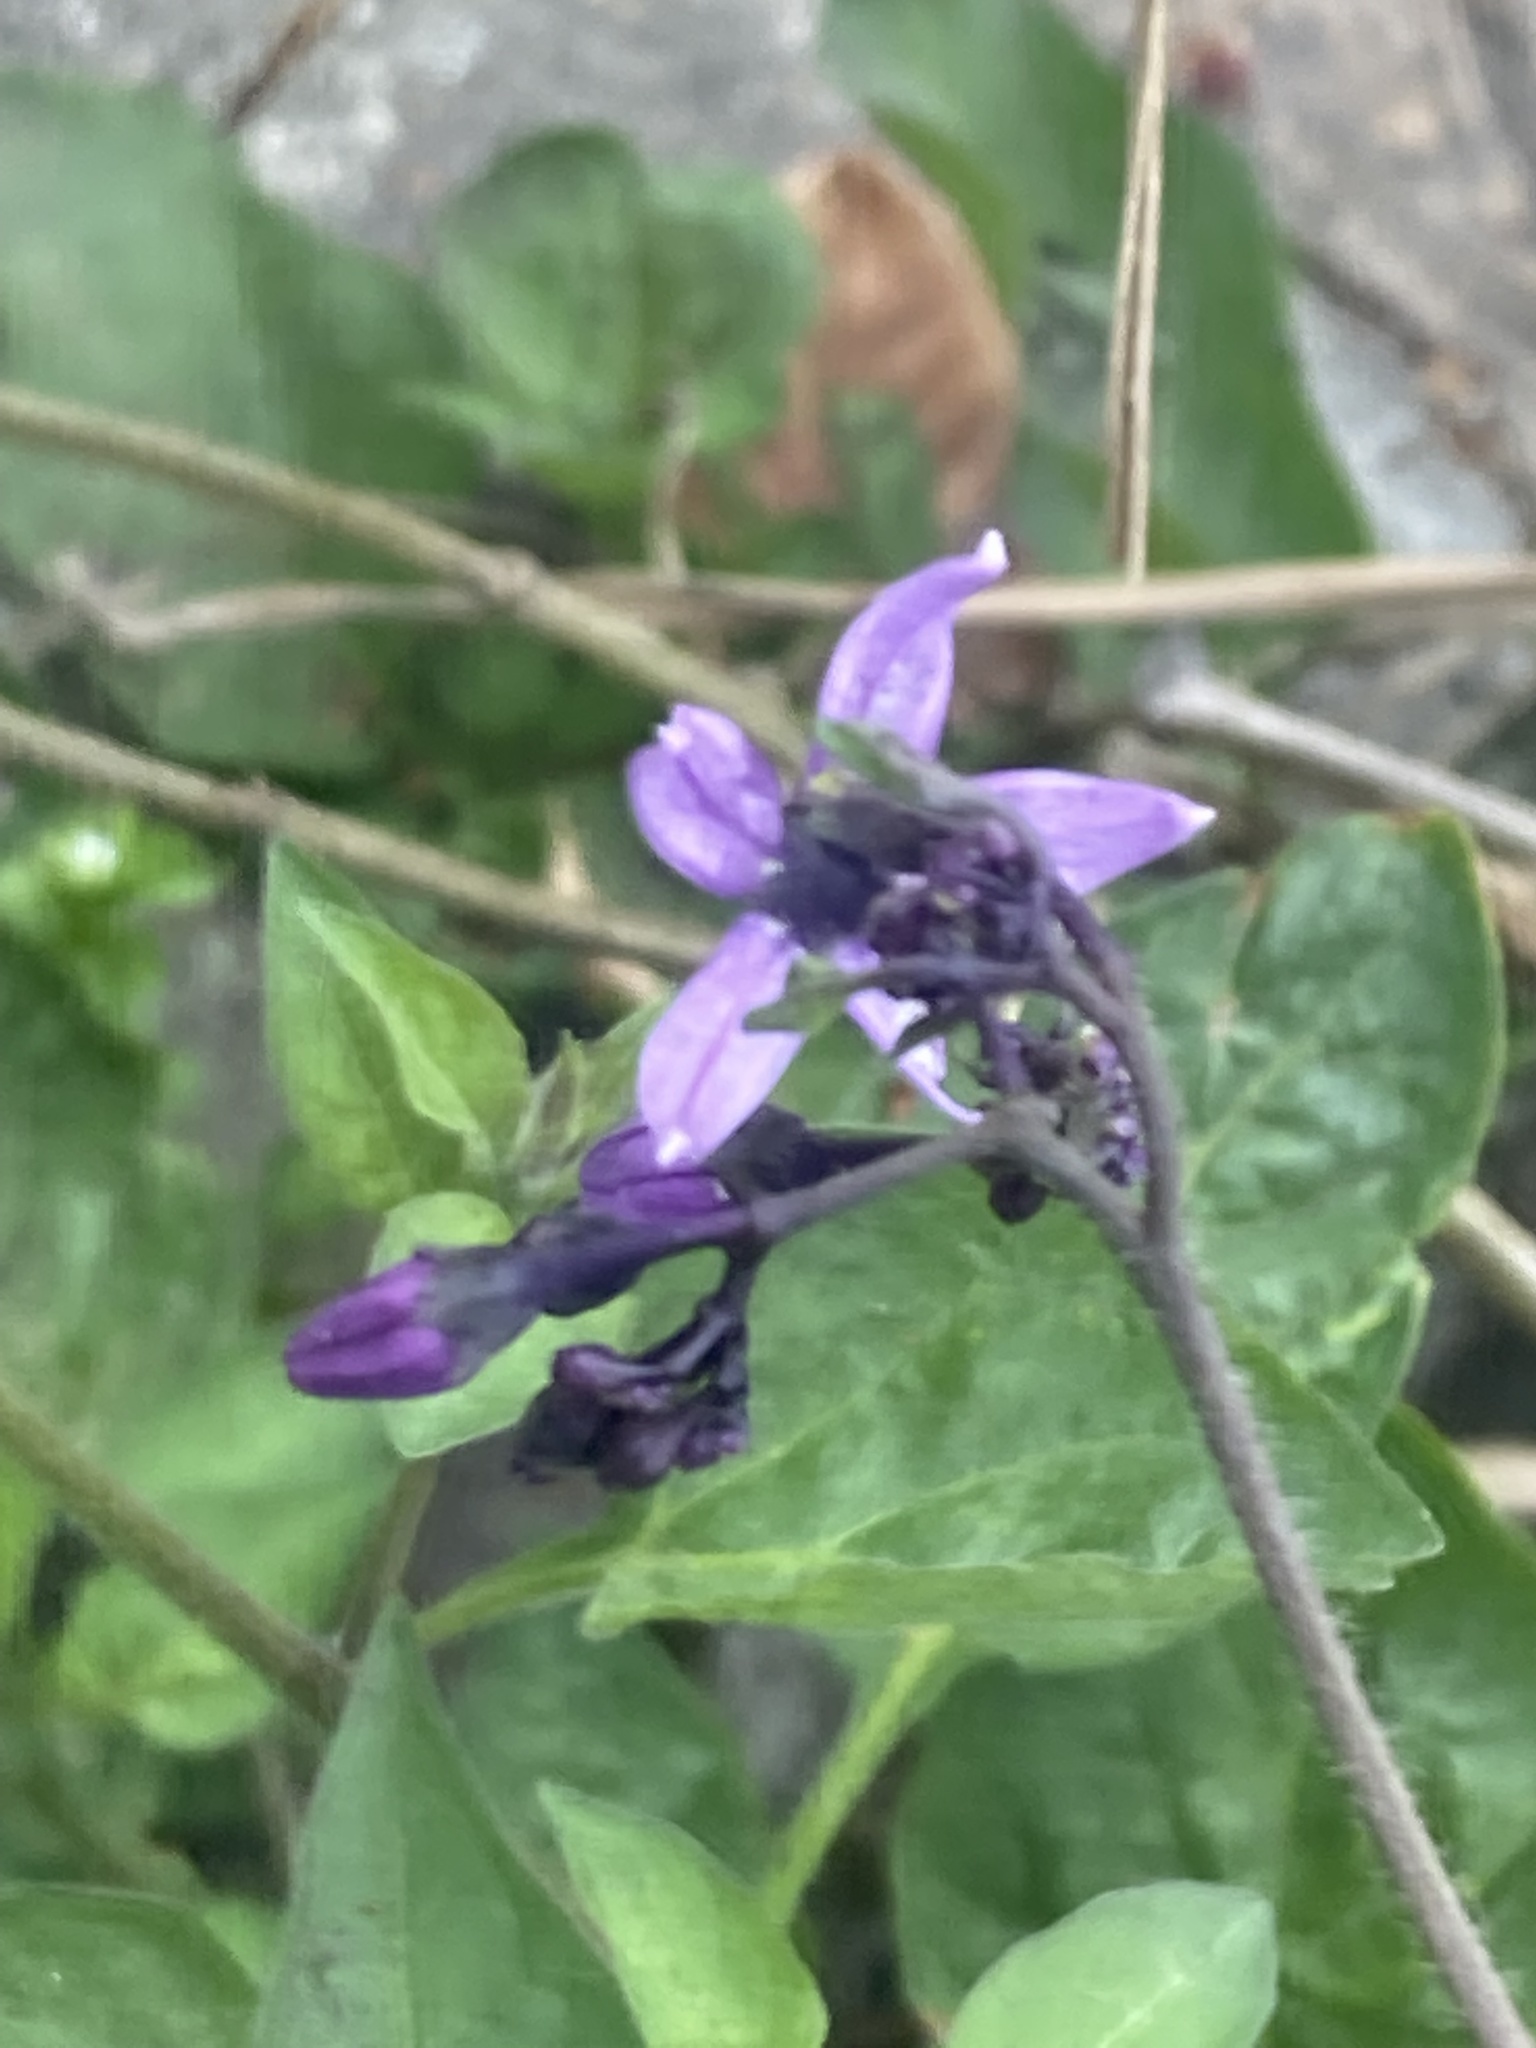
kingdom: Plantae
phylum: Tracheophyta
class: Magnoliopsida
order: Solanales
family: Solanaceae
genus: Solanum
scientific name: Solanum dulcamara
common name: Climbing nightshade
